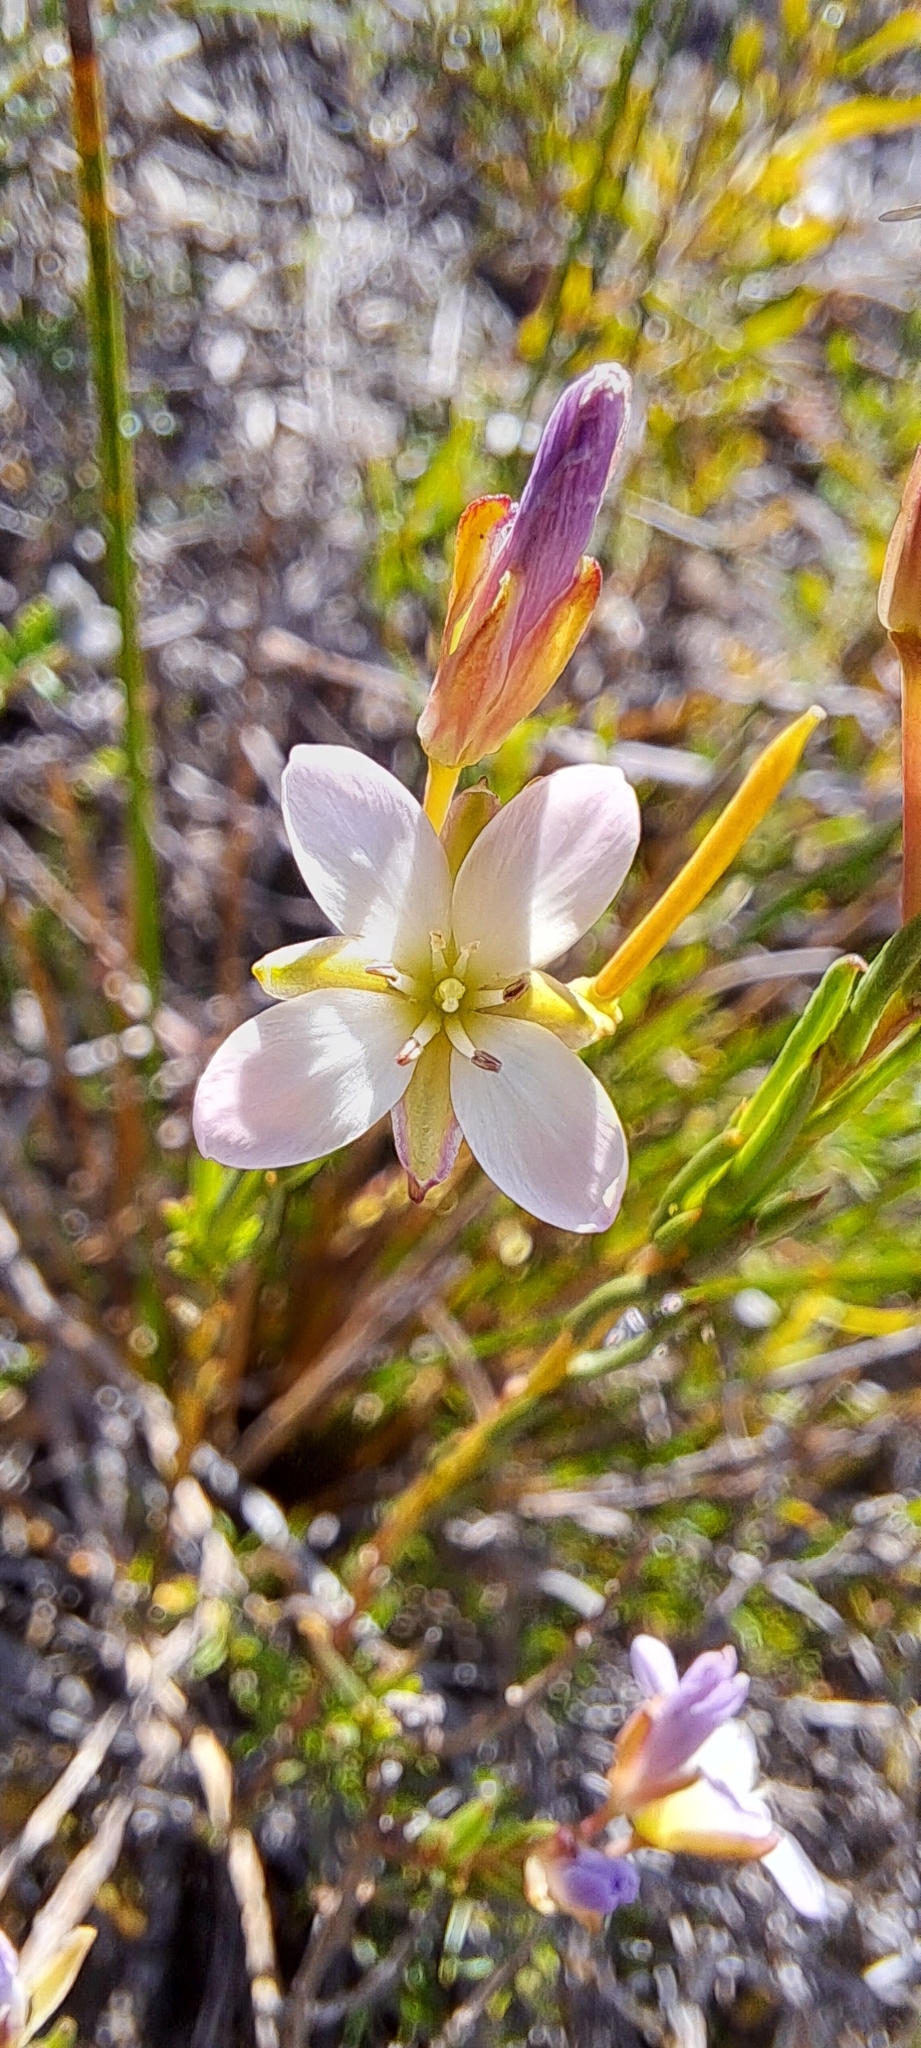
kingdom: Plantae
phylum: Tracheophyta
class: Magnoliopsida
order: Brassicales
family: Brassicaceae
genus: Heliophila
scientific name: Heliophila scoparia
